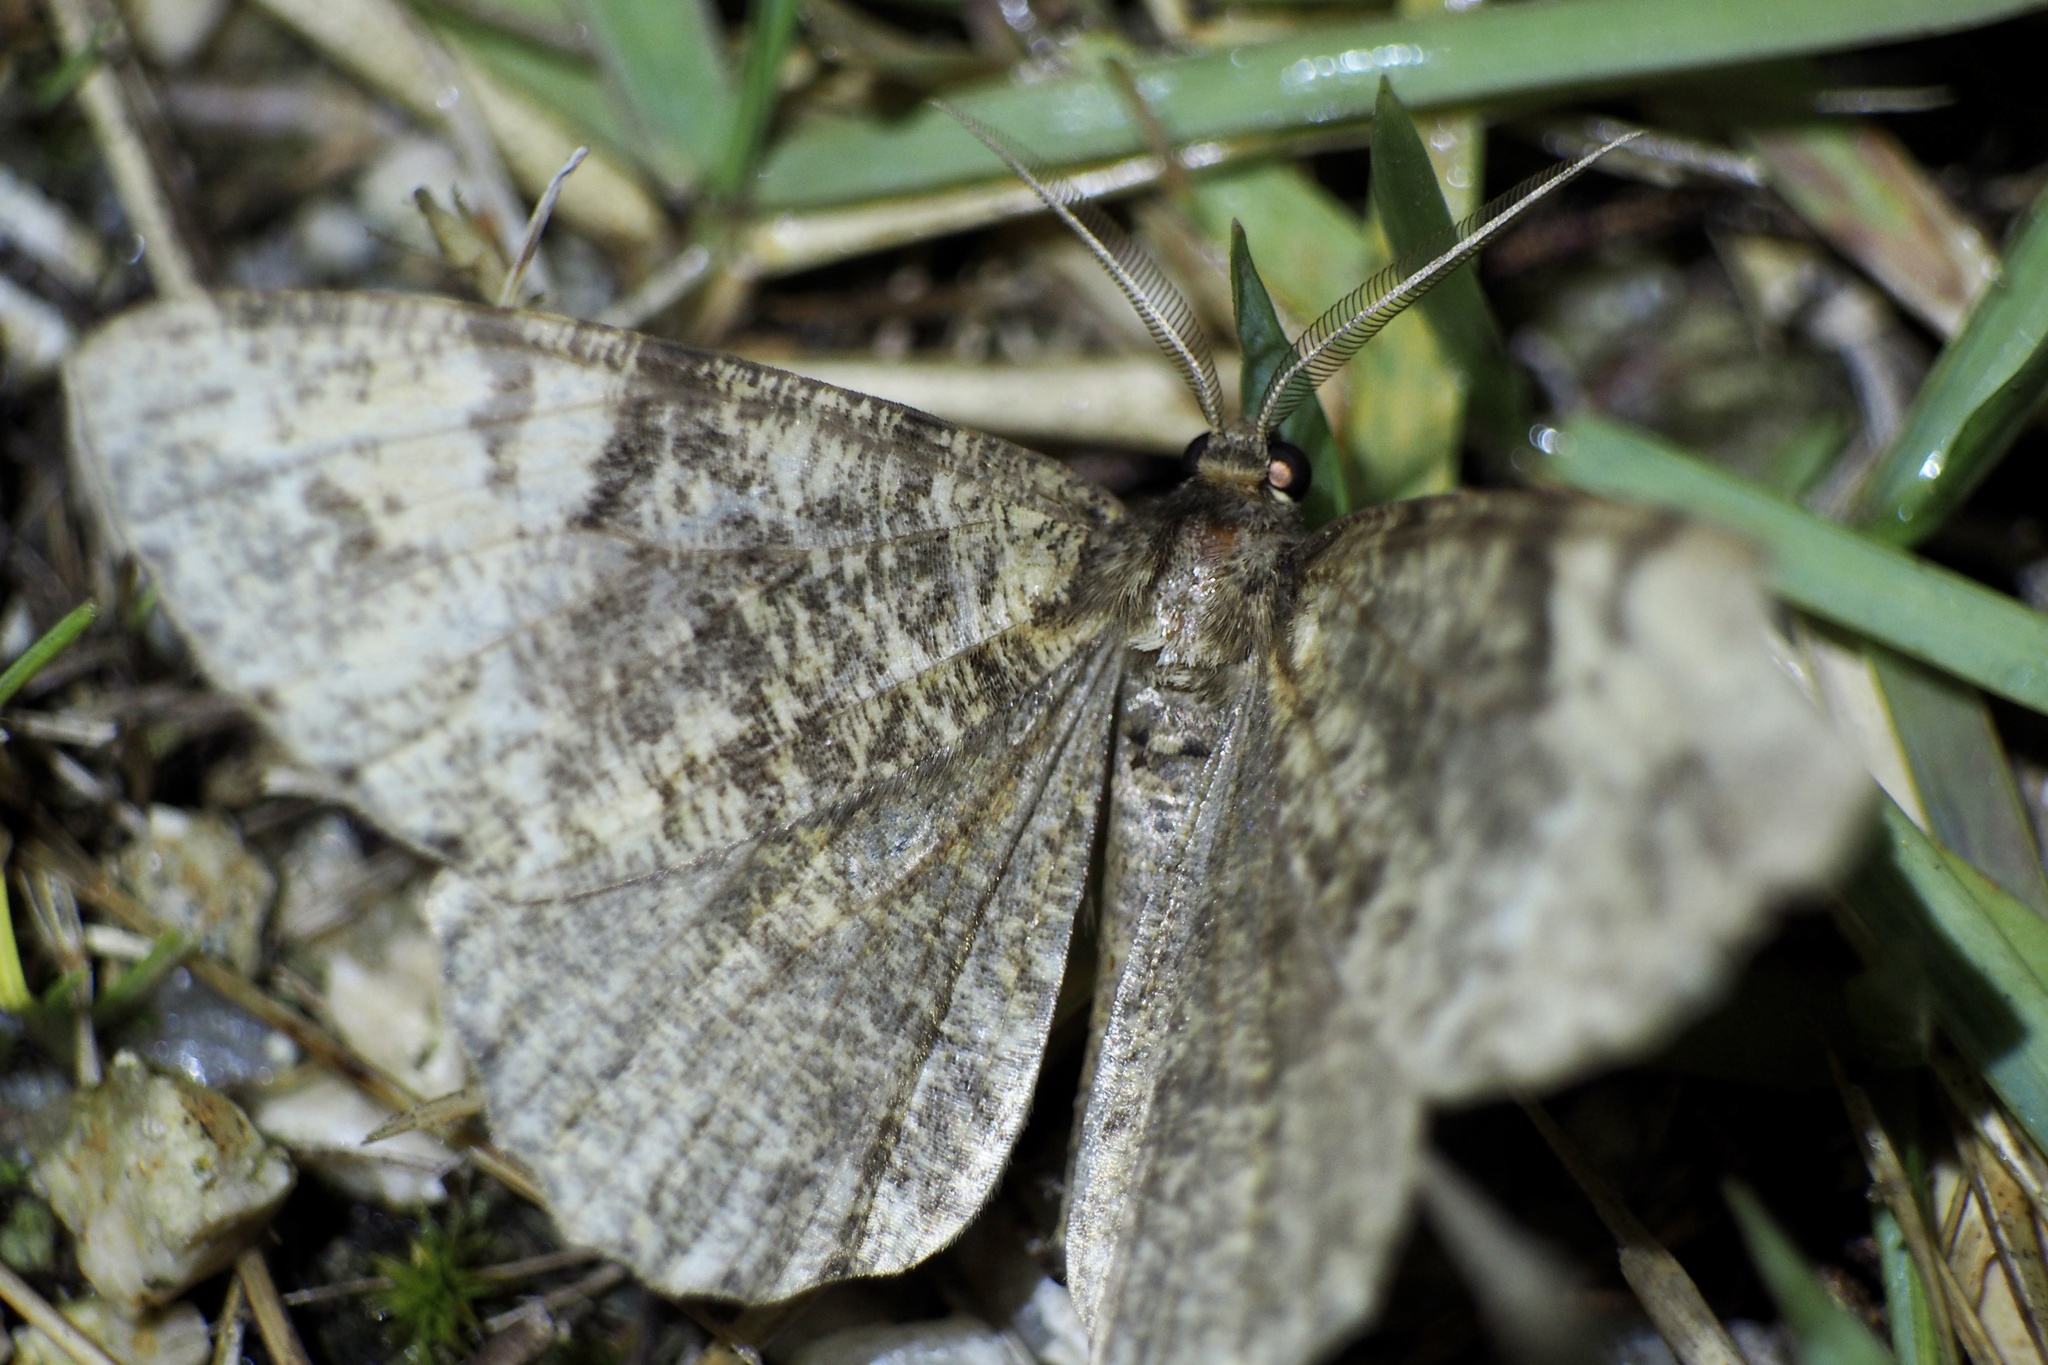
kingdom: Animalia
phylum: Arthropoda
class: Insecta
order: Lepidoptera
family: Geometridae
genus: Duliophyle
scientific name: Duliophyle agitata
